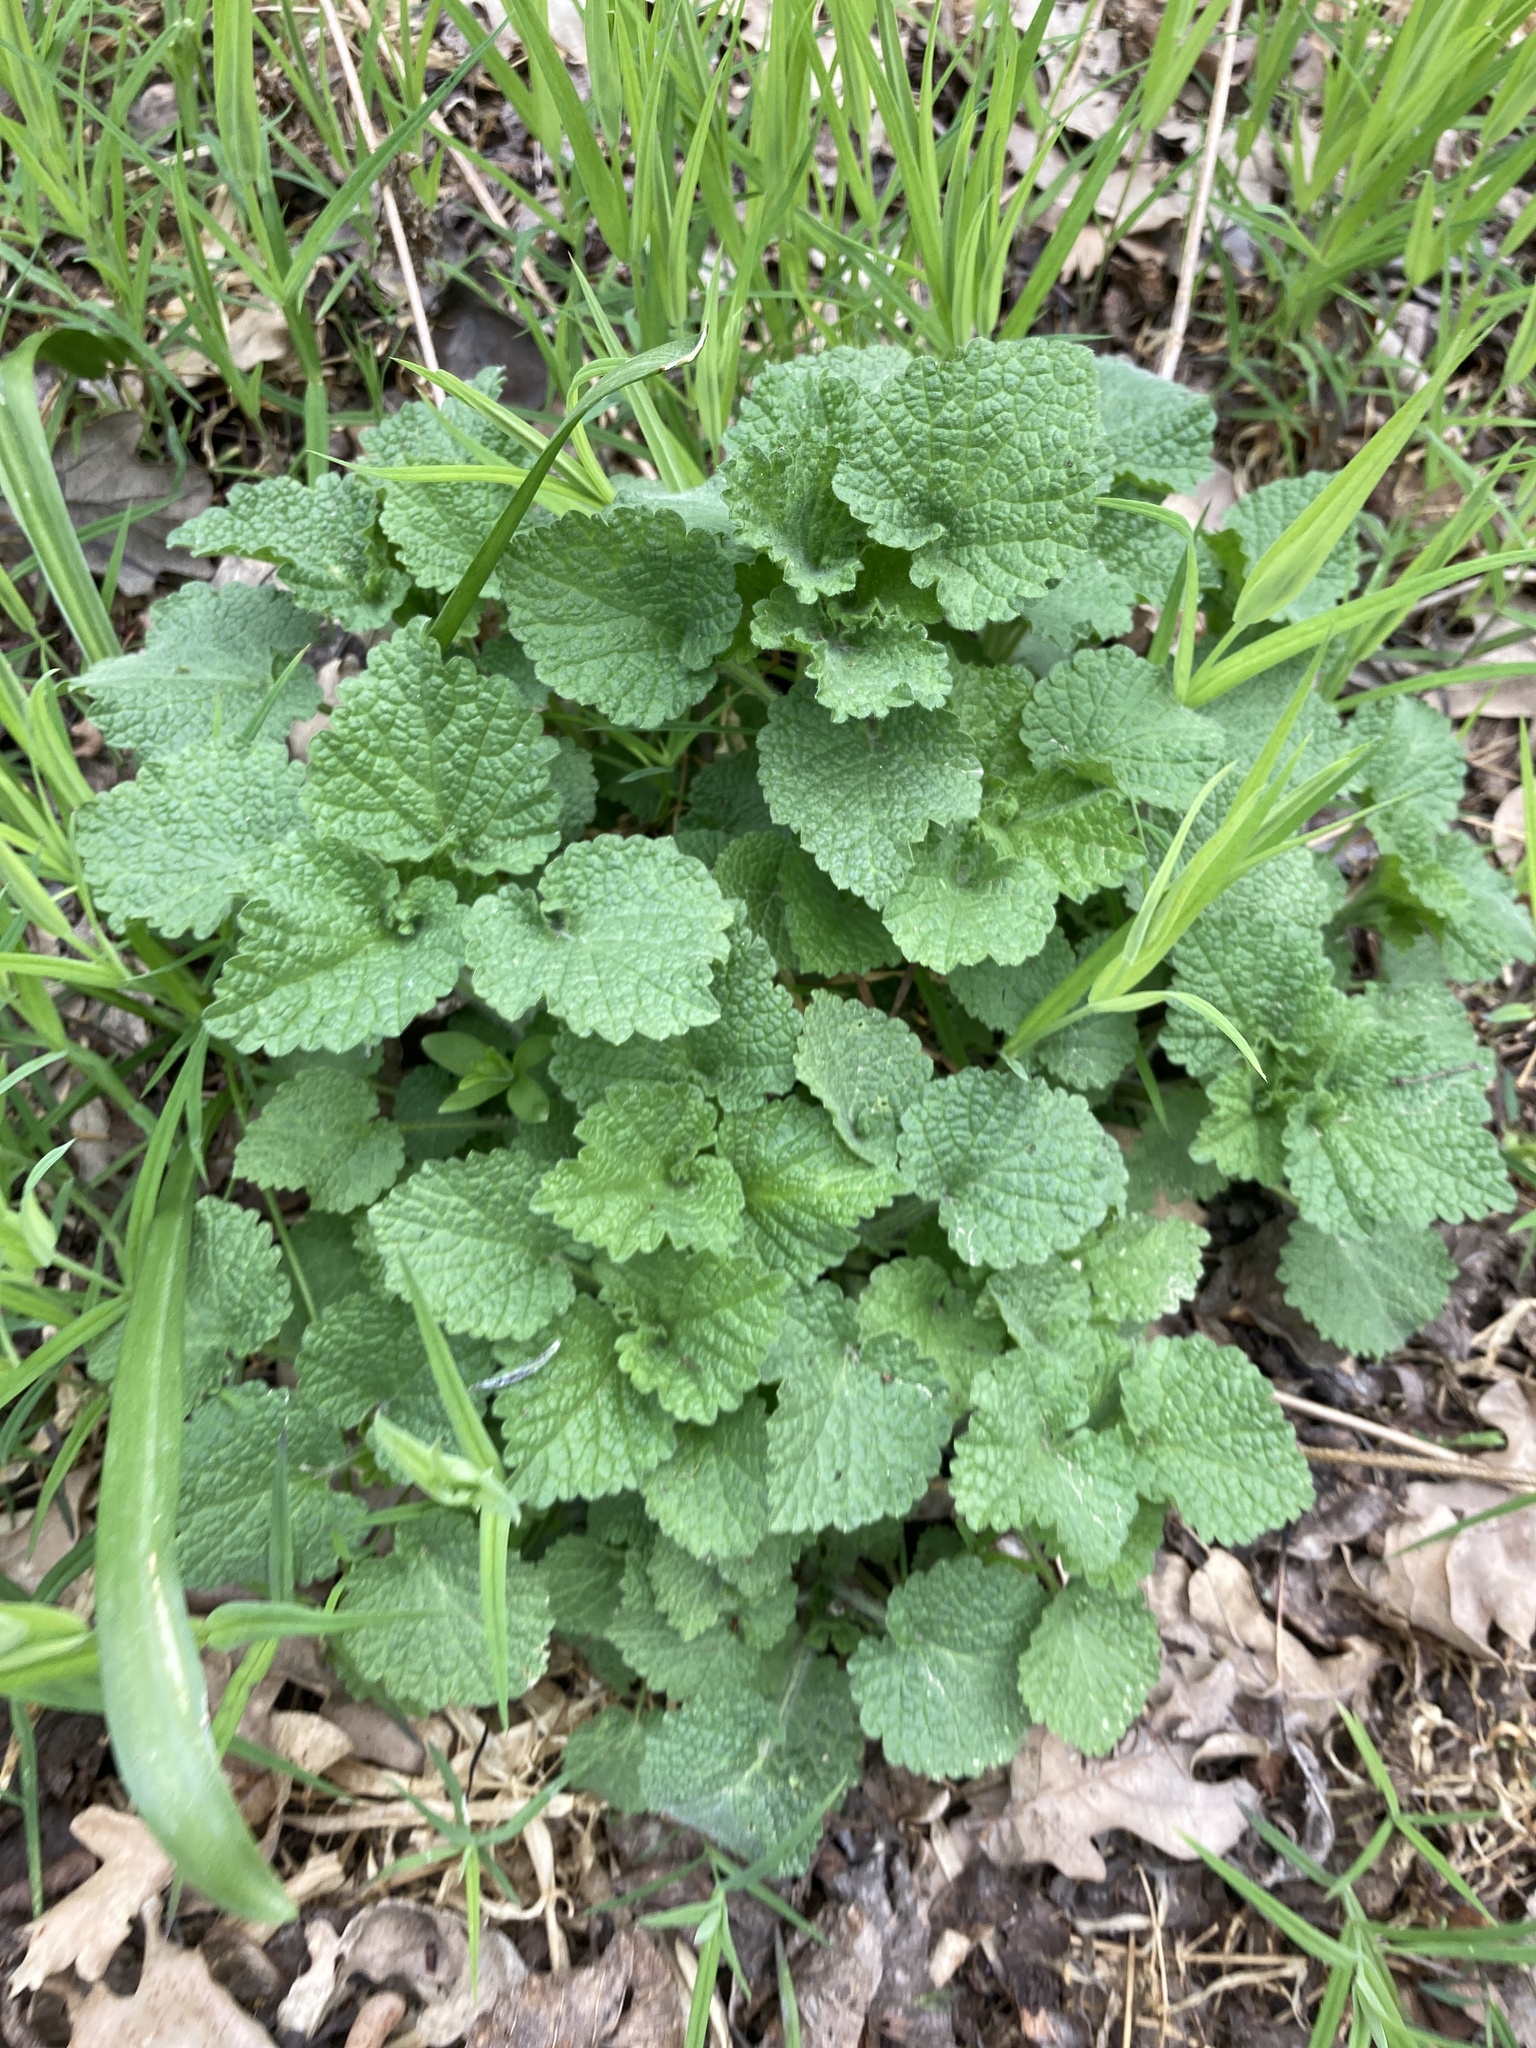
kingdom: Plantae
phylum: Tracheophyta
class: Magnoliopsida
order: Lamiales
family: Lamiaceae
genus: Ballota
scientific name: Ballota nigra
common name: Black horehound
